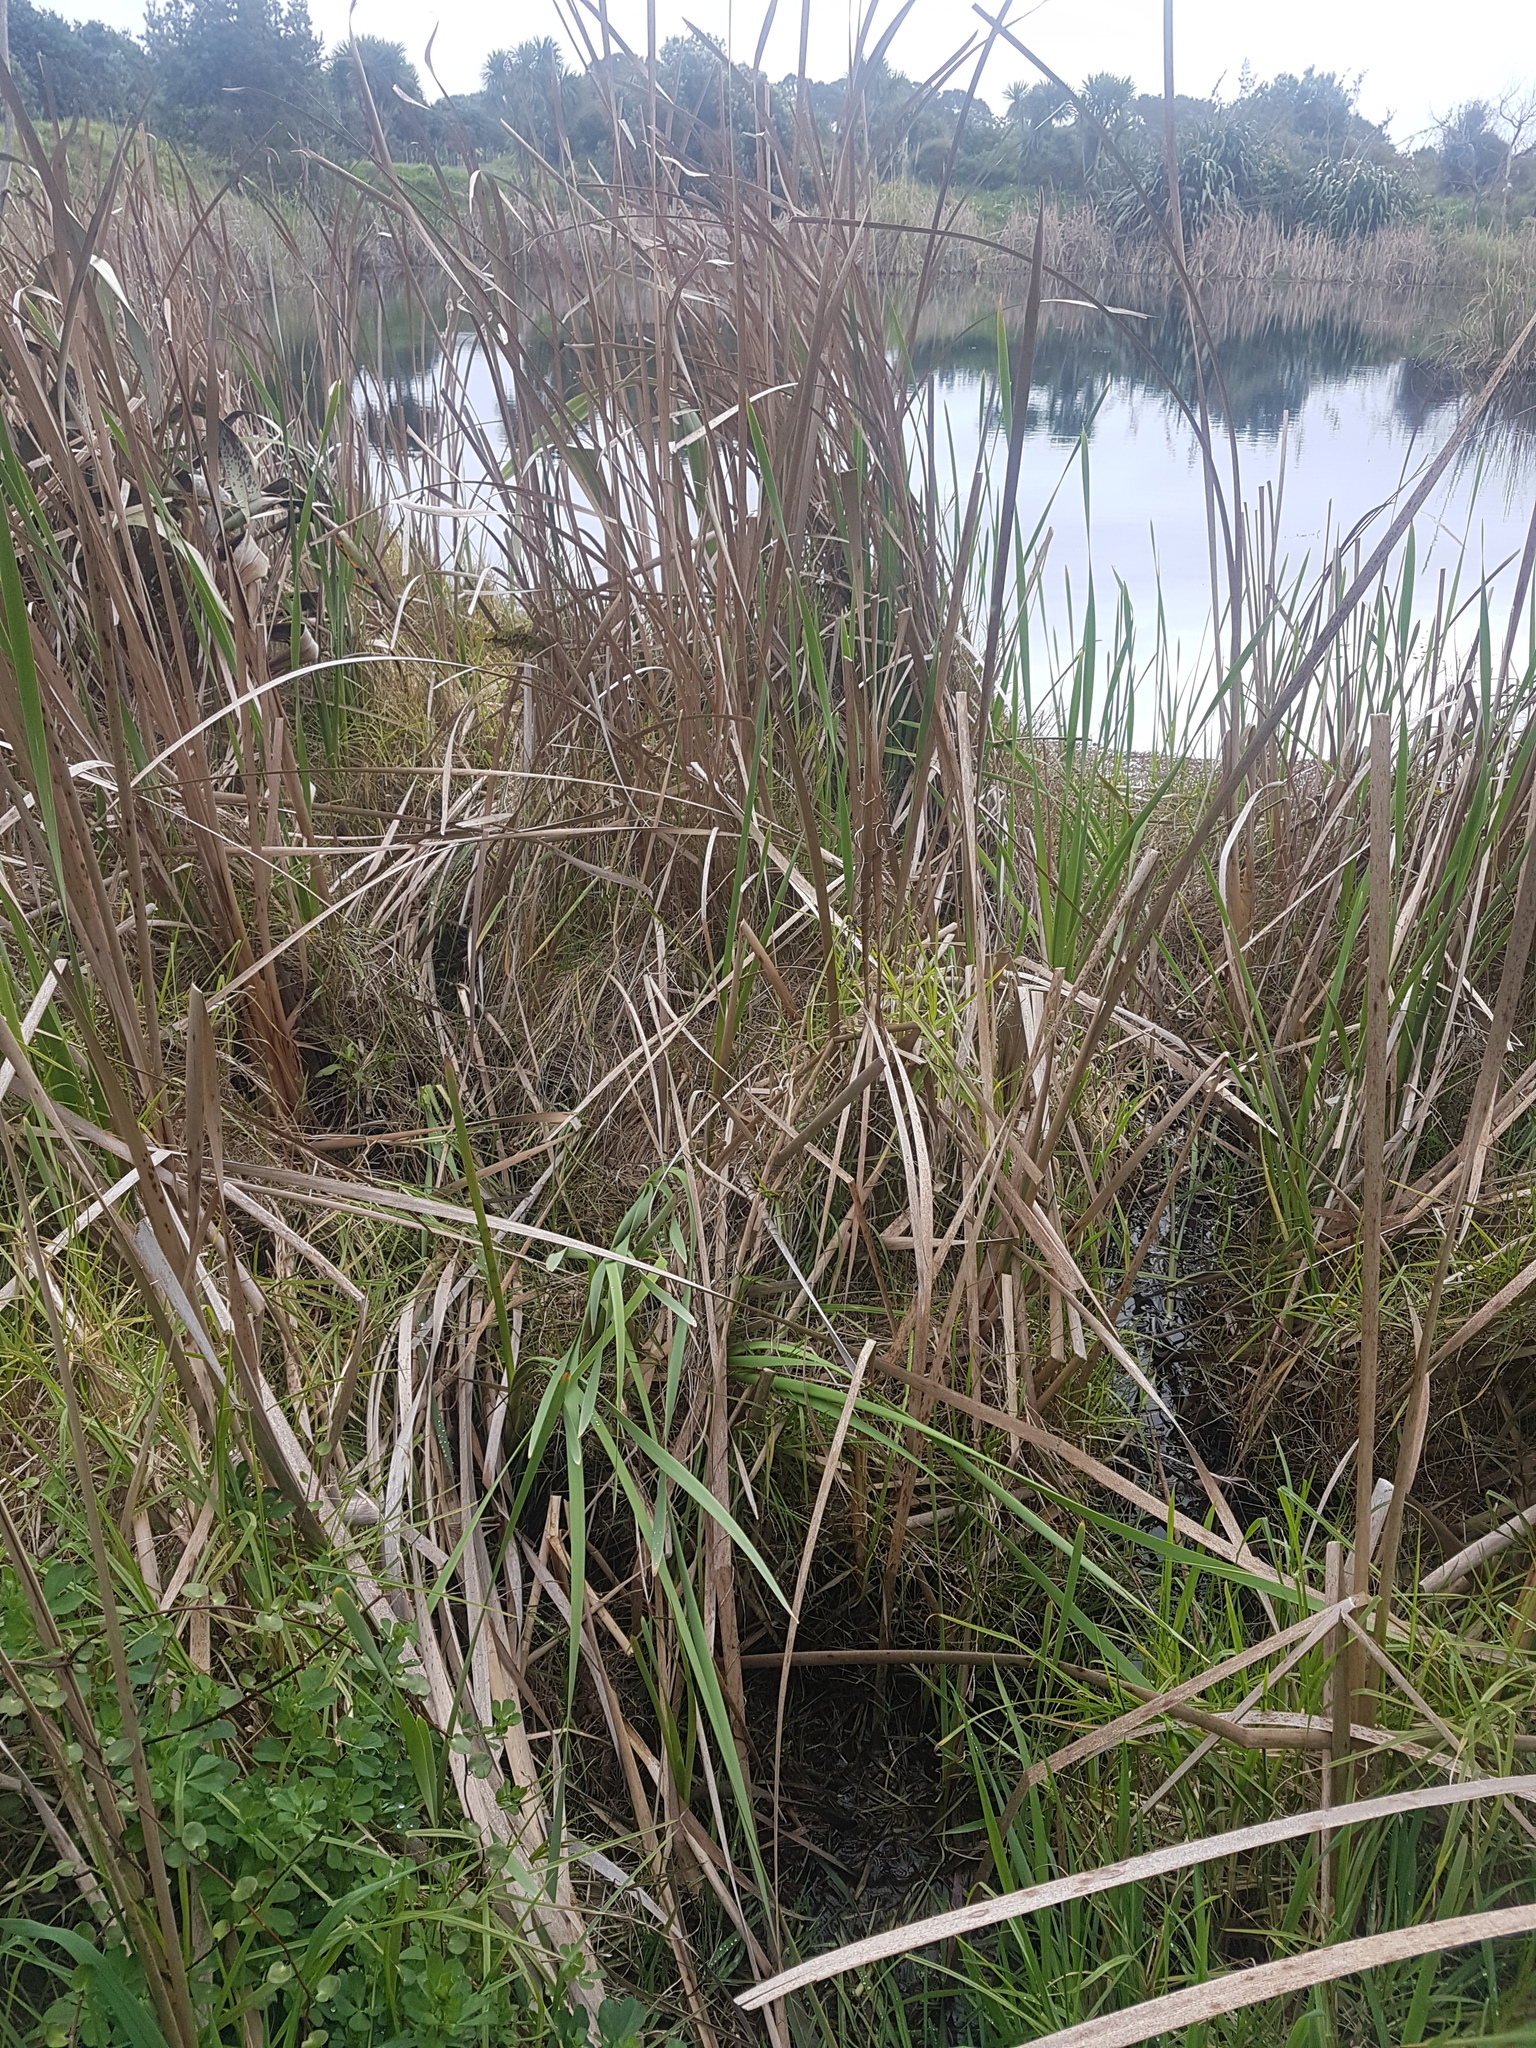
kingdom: Plantae
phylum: Tracheophyta
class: Liliopsida
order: Poales
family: Typhaceae
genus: Typha
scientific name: Typha orientalis
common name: Bullrush
